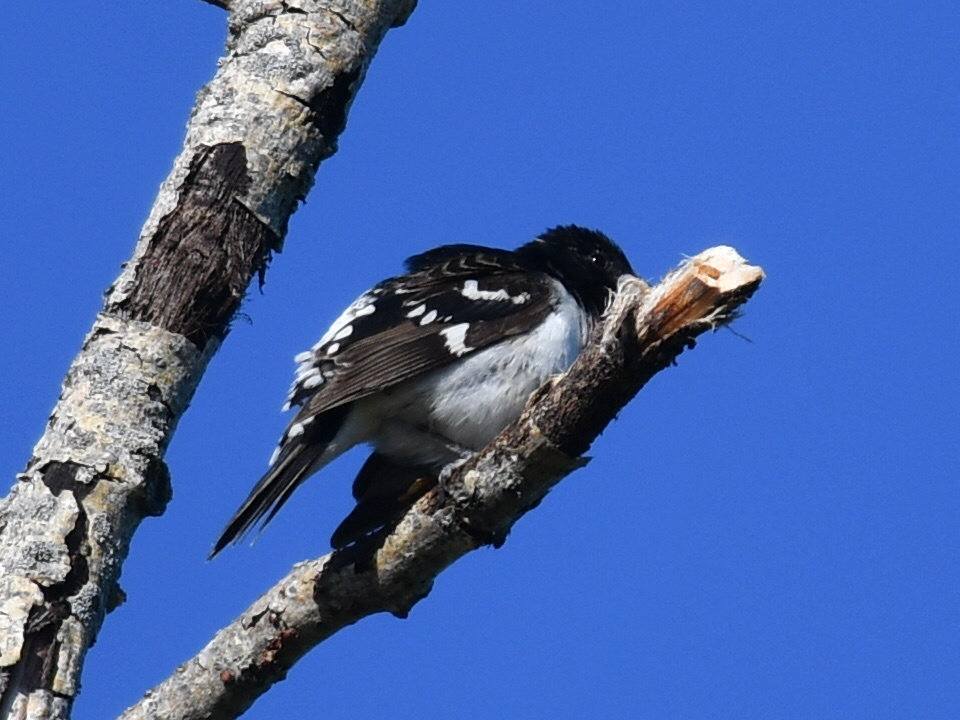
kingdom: Animalia
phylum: Chordata
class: Aves
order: Passeriformes
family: Cardinalidae
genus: Pheucticus
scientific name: Pheucticus ludovicianus
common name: Rose-breasted grosbeak
